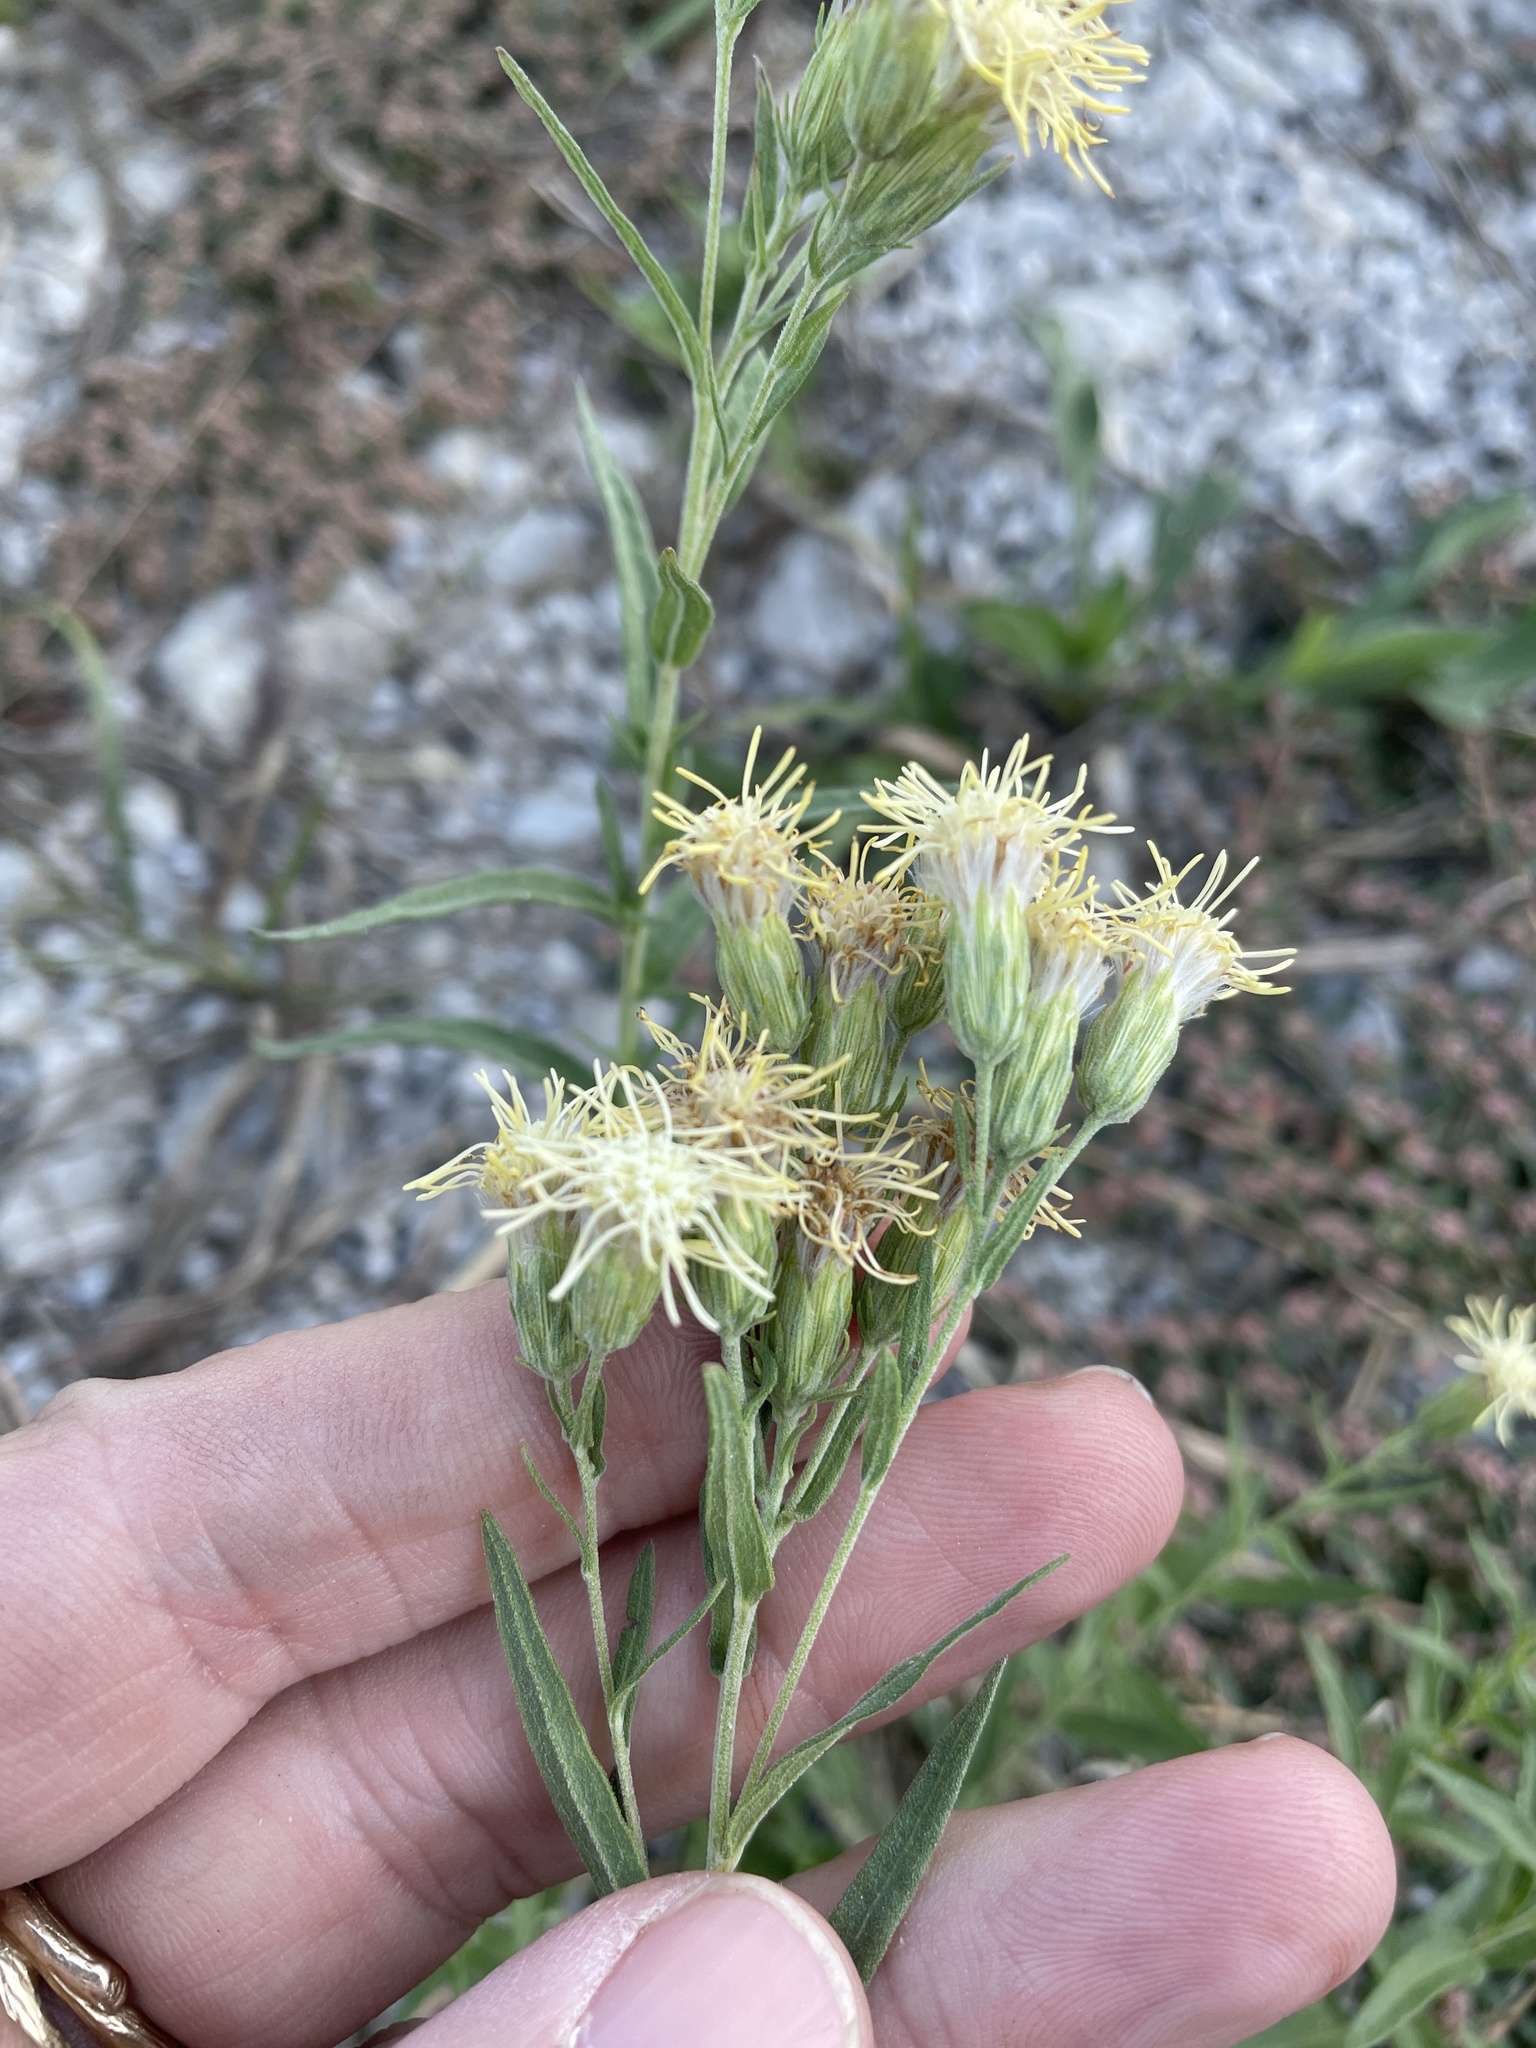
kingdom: Plantae
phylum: Tracheophyta
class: Magnoliopsida
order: Asterales
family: Asteraceae
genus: Brickellia
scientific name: Brickellia eupatorioides
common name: False boneset
